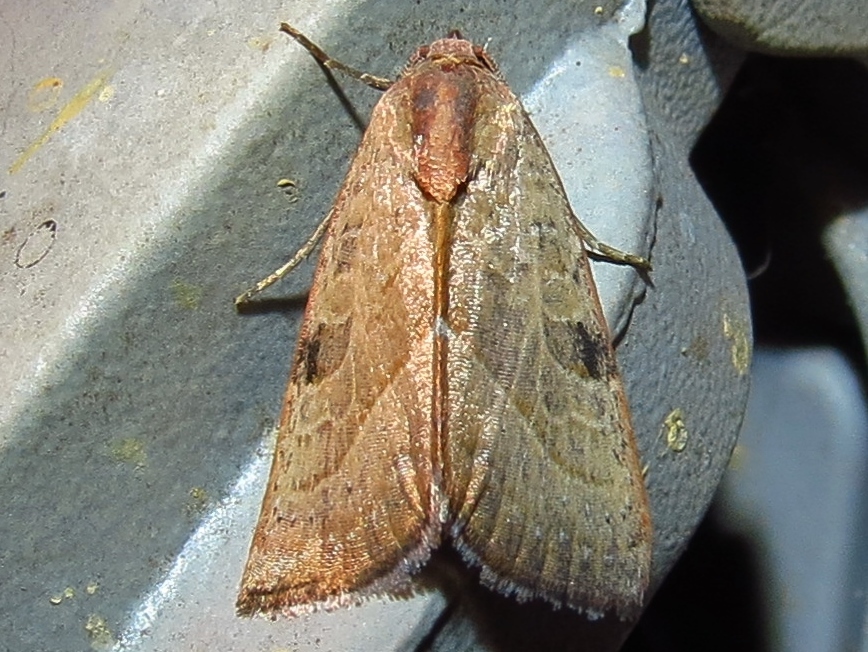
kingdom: Animalia
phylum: Arthropoda
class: Insecta
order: Lepidoptera
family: Noctuidae
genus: Galgula
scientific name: Galgula partita
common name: Wedgeling
